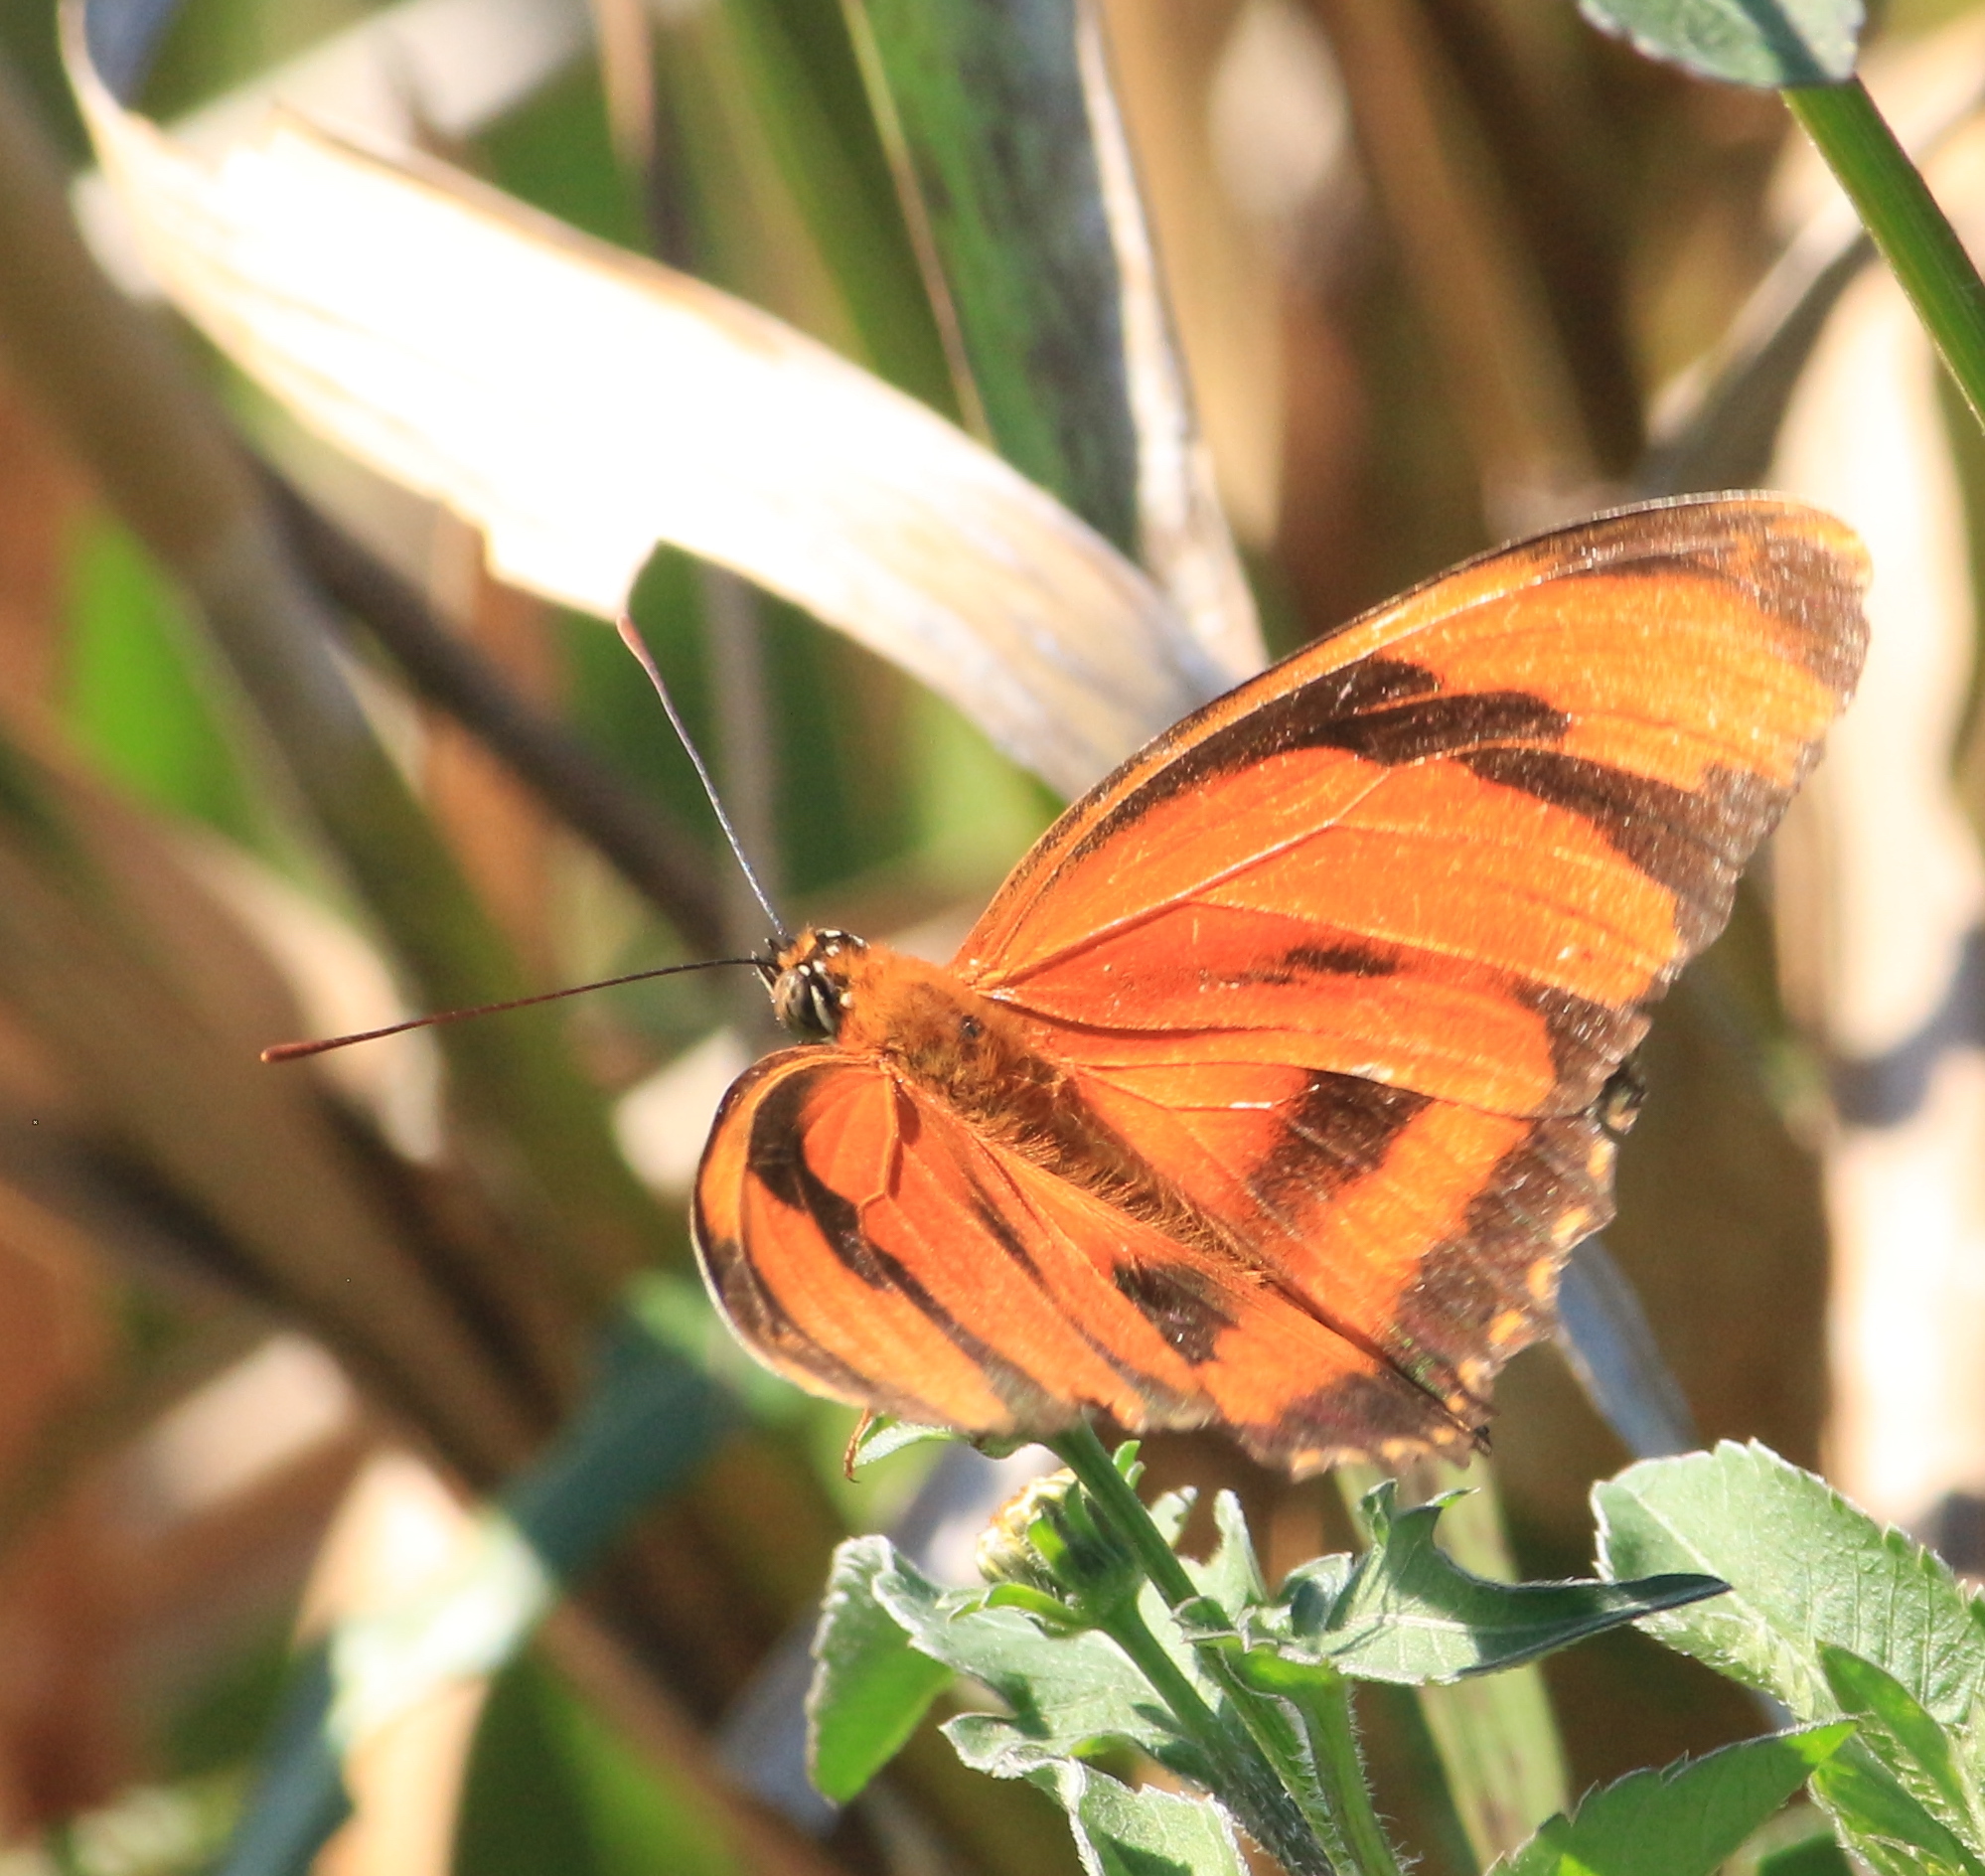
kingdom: Animalia
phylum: Arthropoda
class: Insecta
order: Lepidoptera
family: Nymphalidae
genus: Dryadula
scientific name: Dryadula phaetusa
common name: Banded orange heliconian
